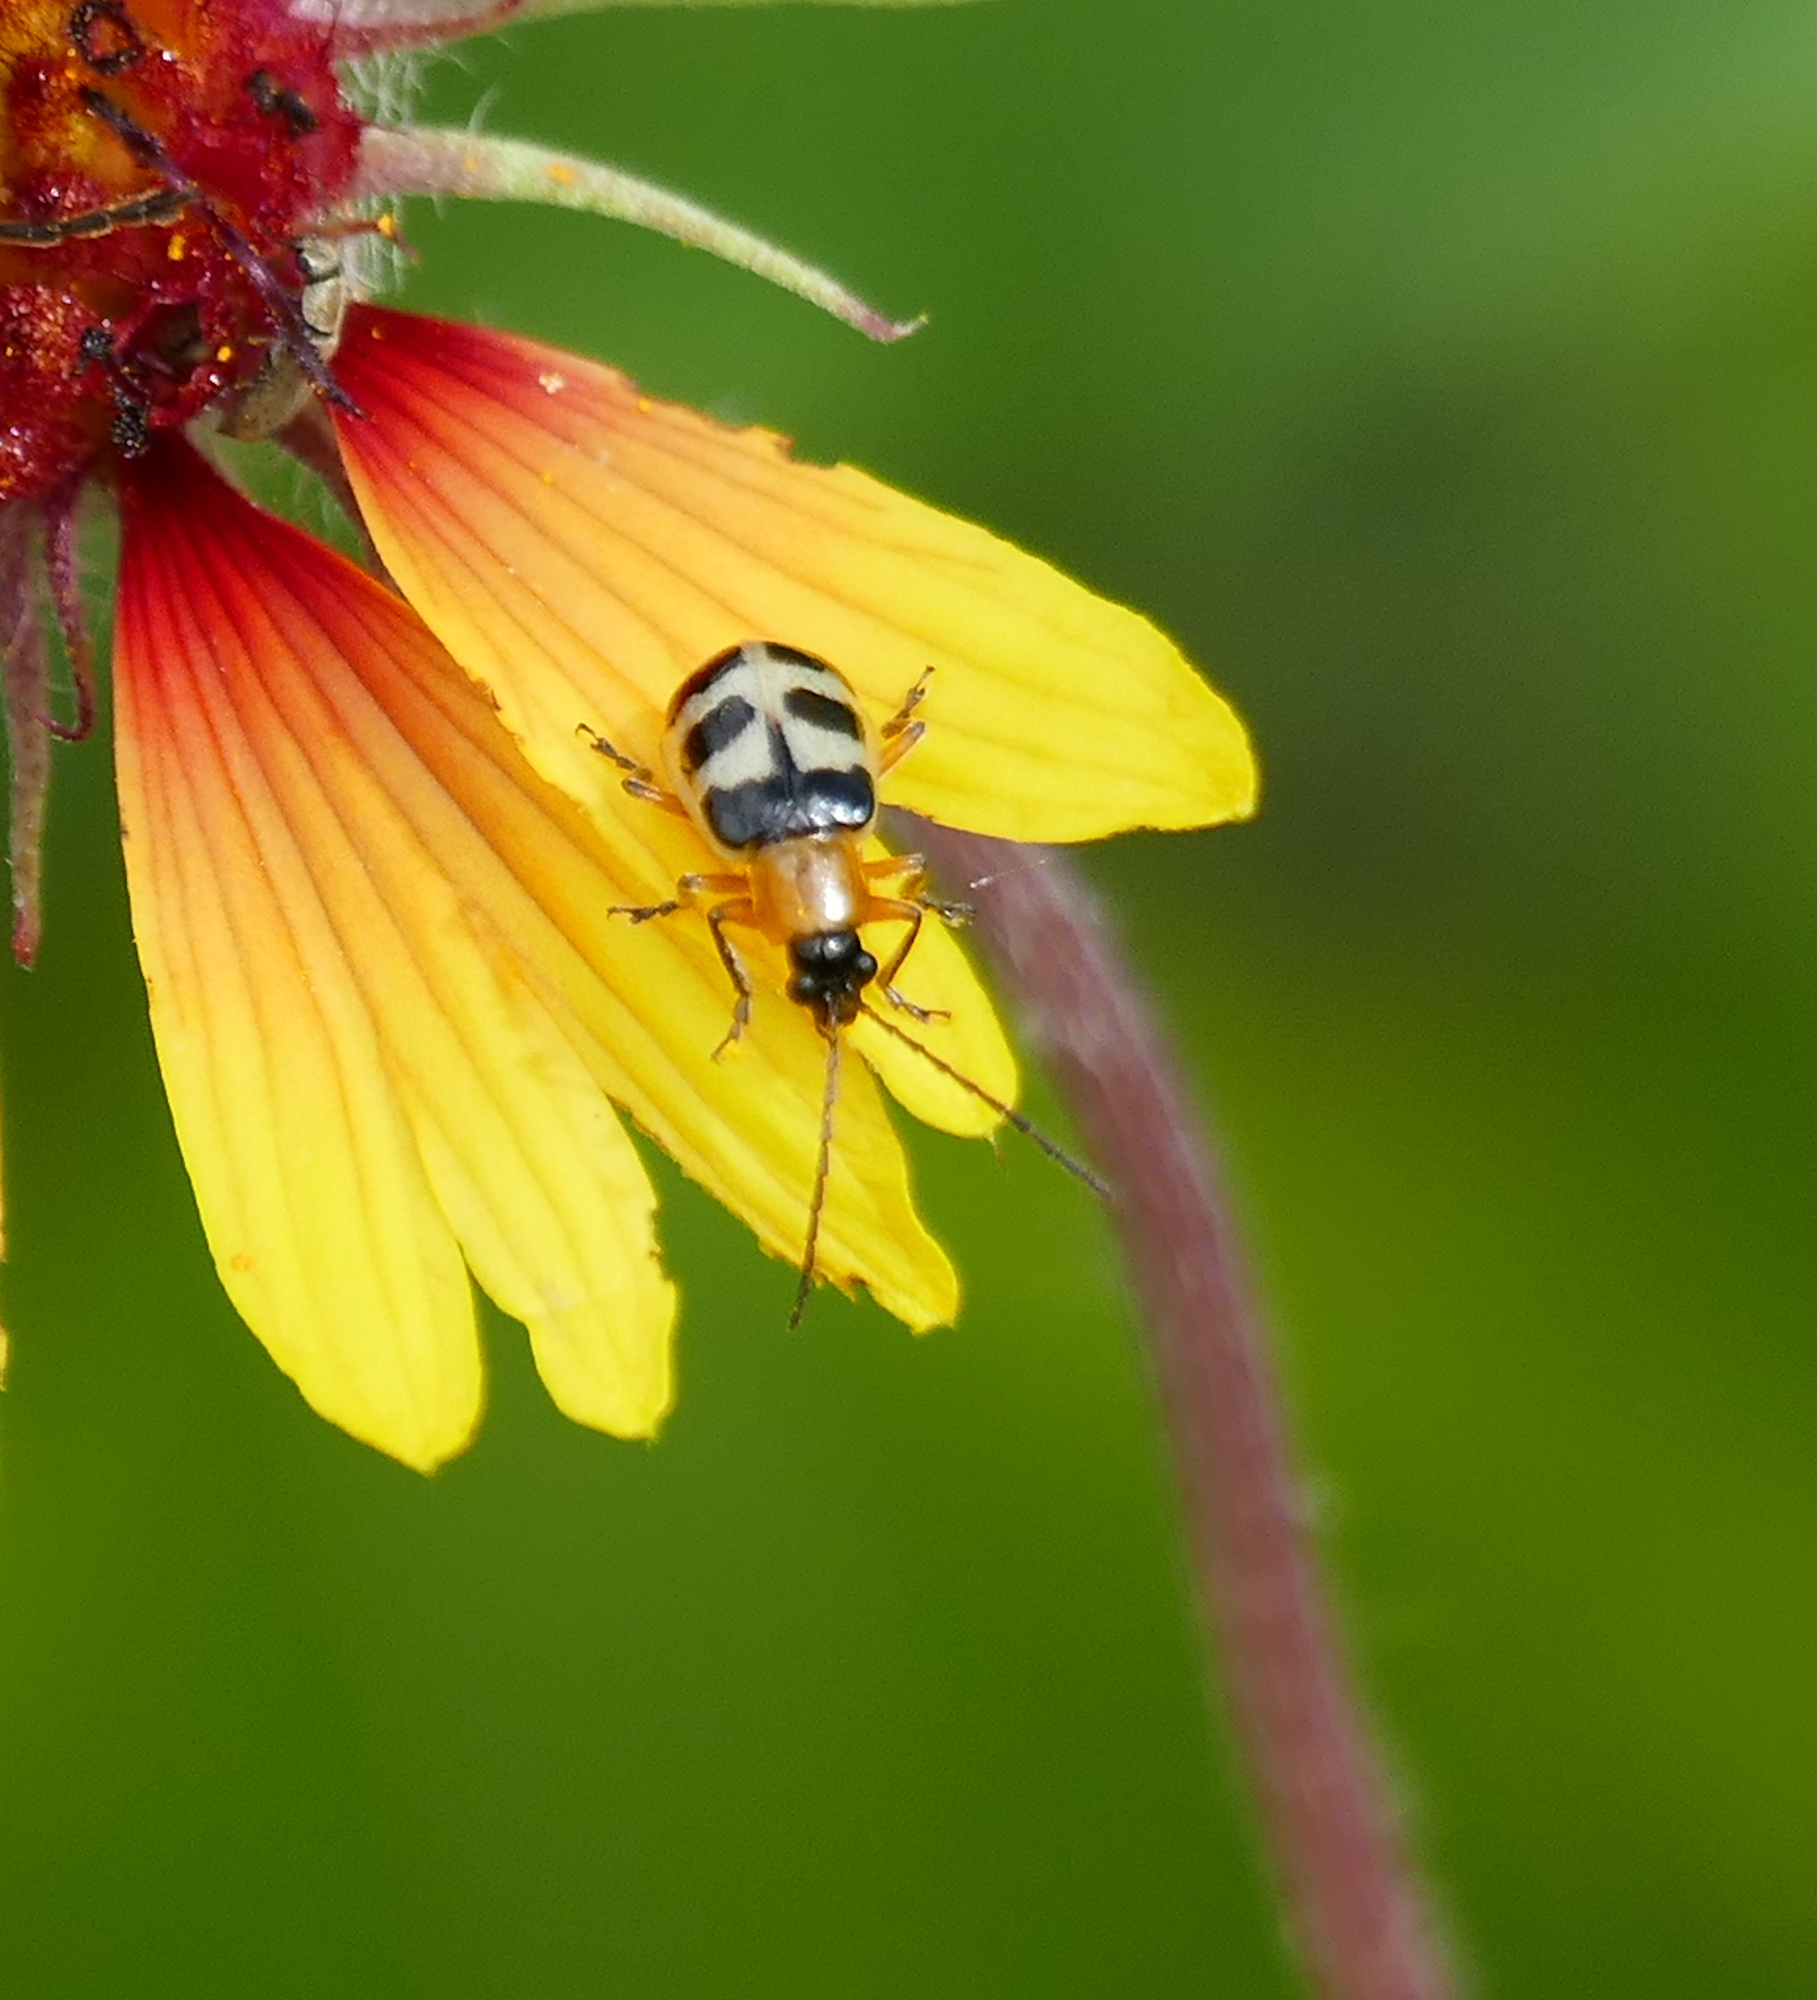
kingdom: Animalia
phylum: Arthropoda
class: Insecta
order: Coleoptera
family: Chrysomelidae
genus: Paranapiacaba
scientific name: Paranapiacaba tricincta
